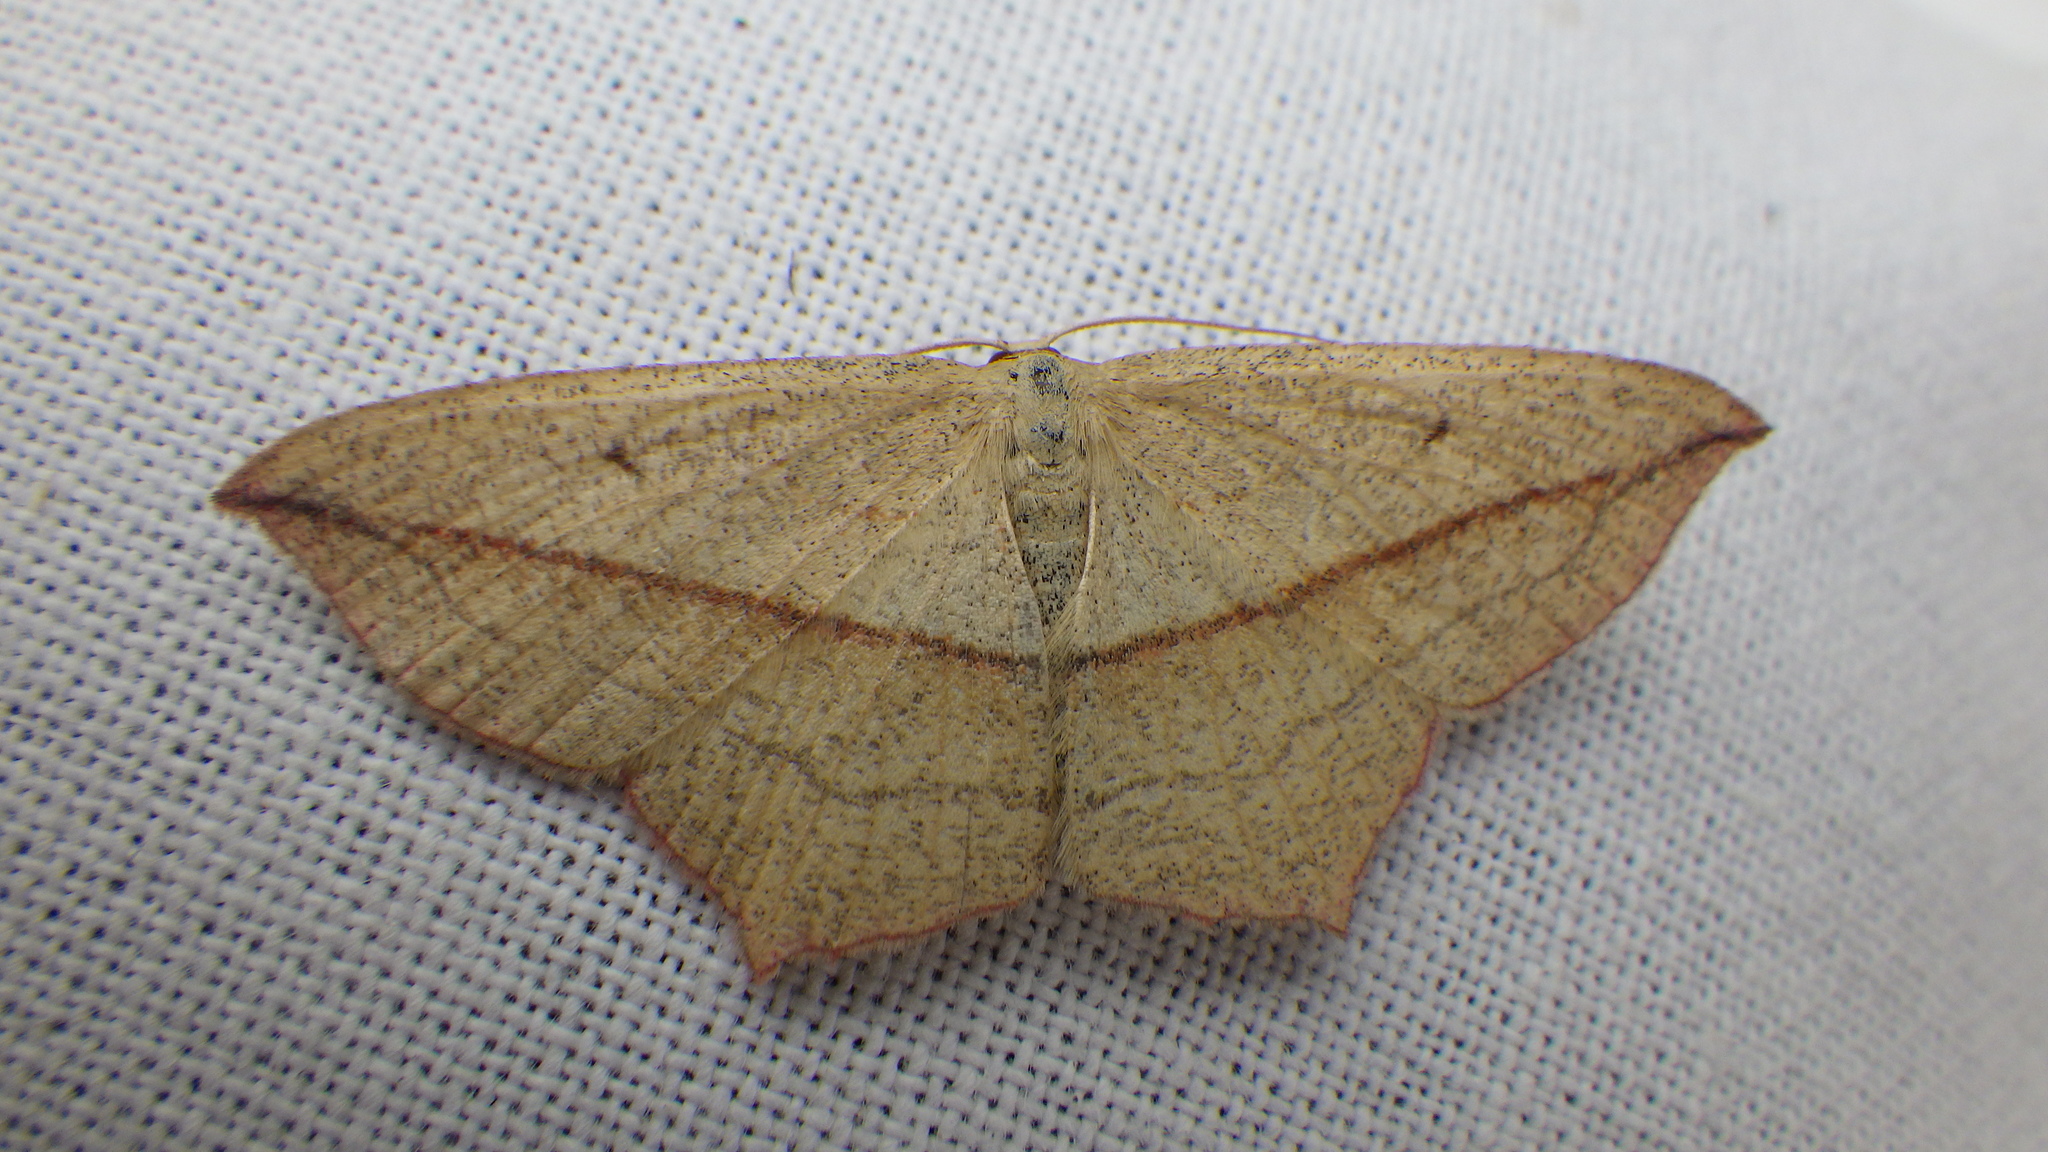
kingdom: Animalia
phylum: Arthropoda
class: Insecta
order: Lepidoptera
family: Geometridae
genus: Timandra
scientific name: Timandra comae
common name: Blood-vein
